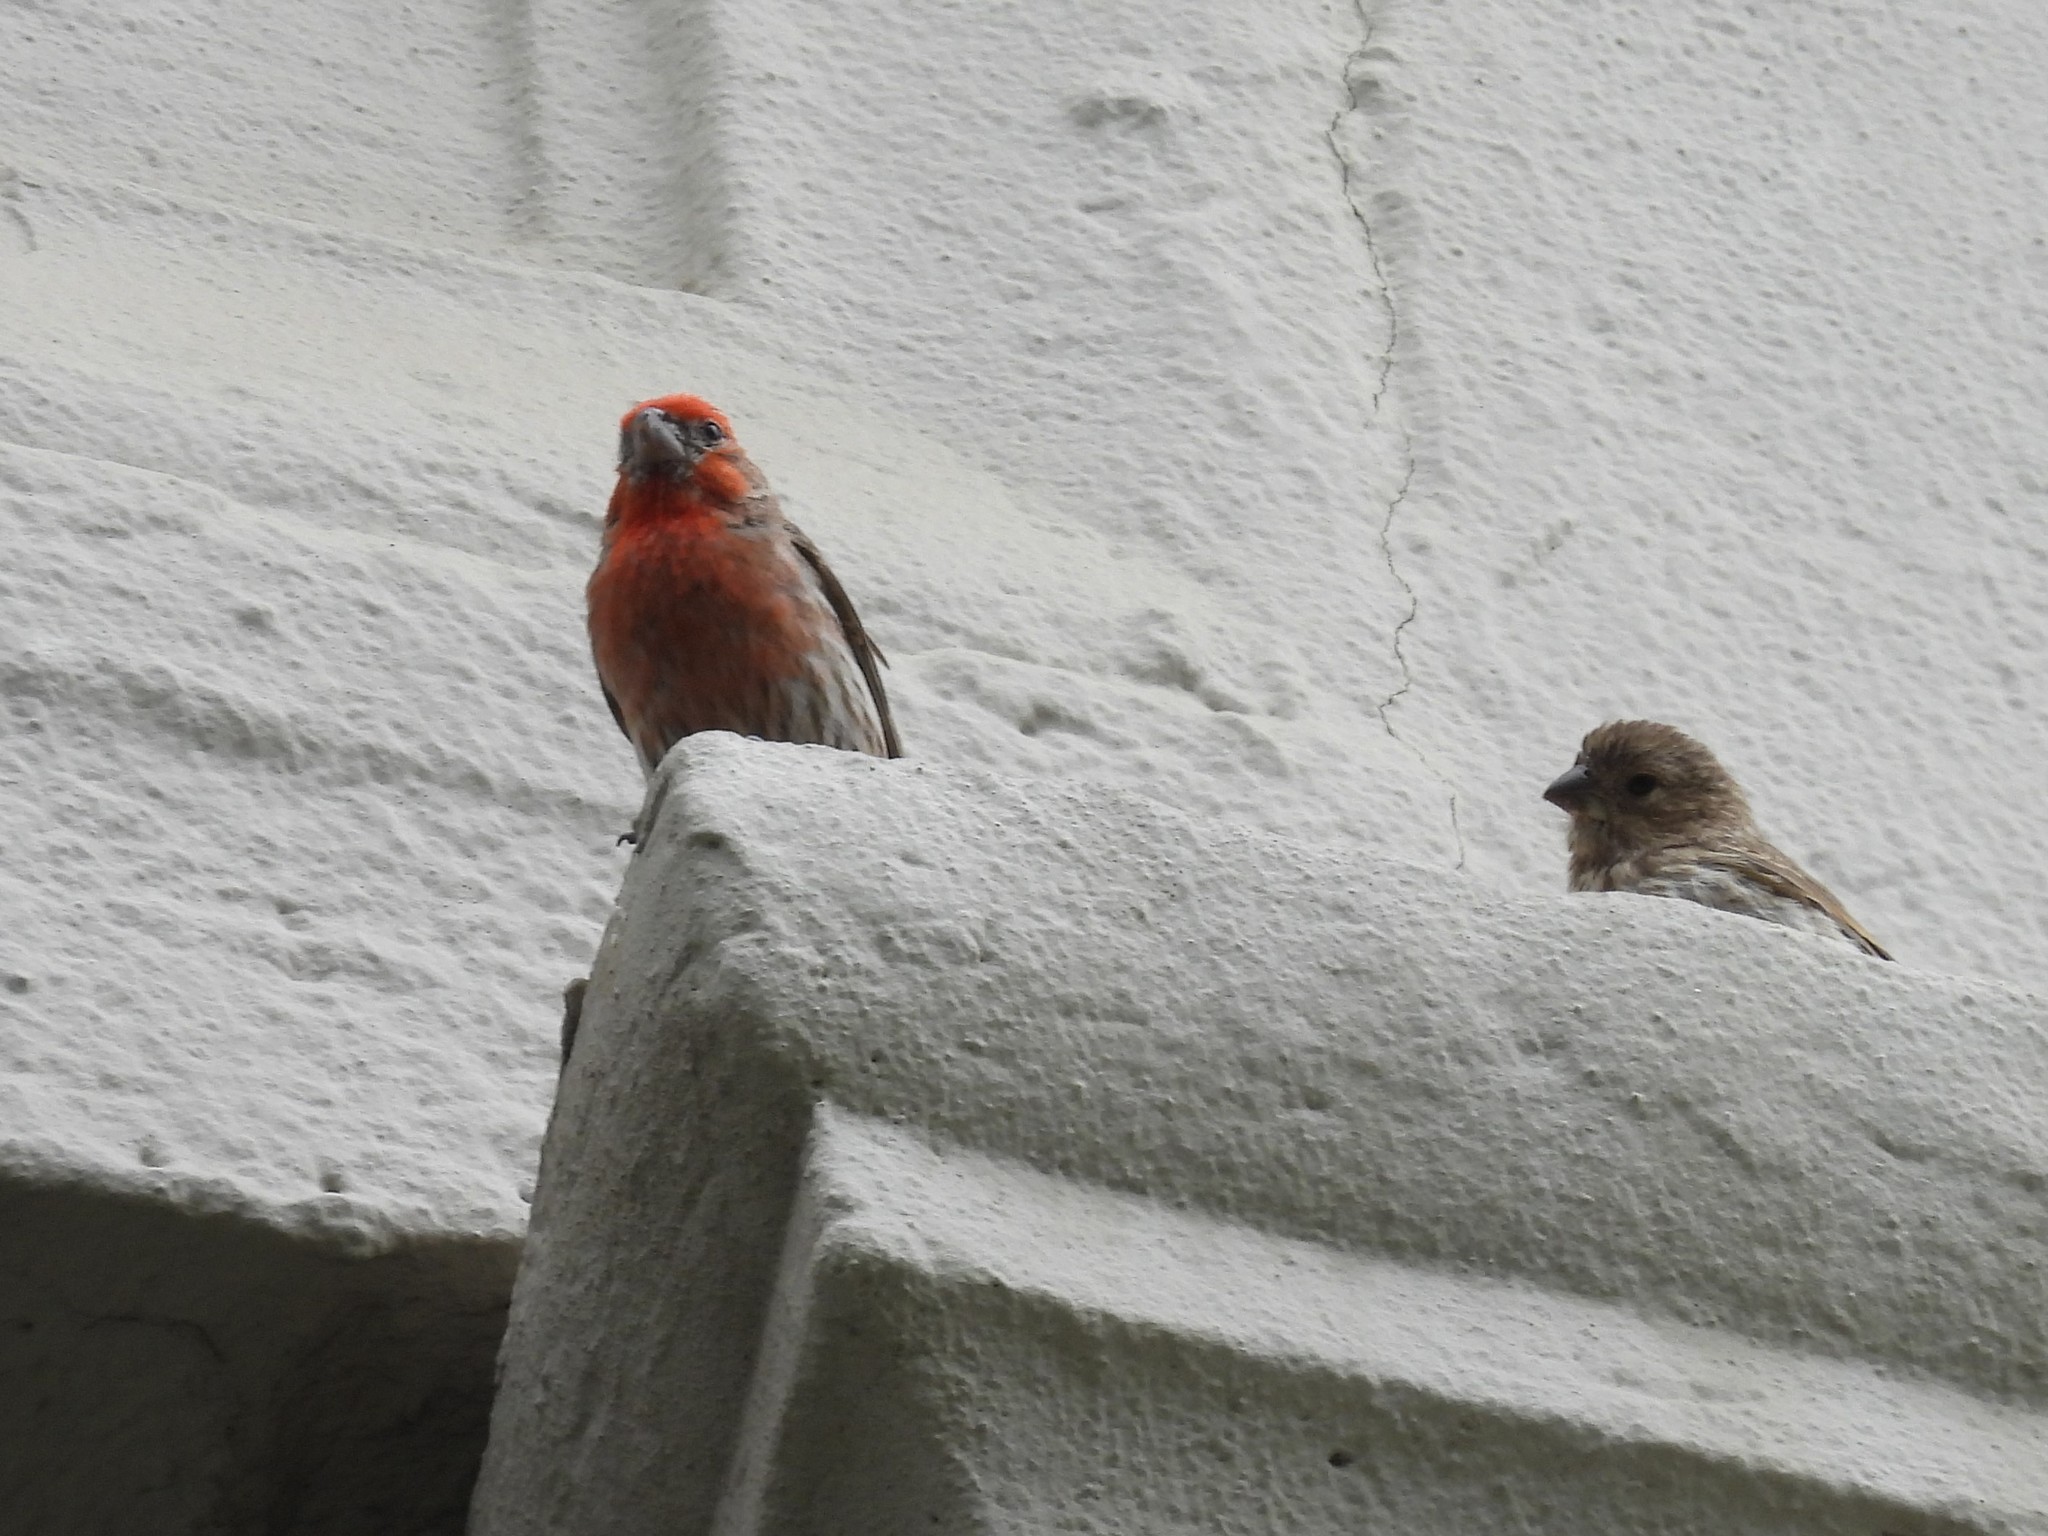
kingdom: Animalia
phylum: Chordata
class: Aves
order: Passeriformes
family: Fringillidae
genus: Haemorhous
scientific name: Haemorhous mexicanus
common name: House finch
